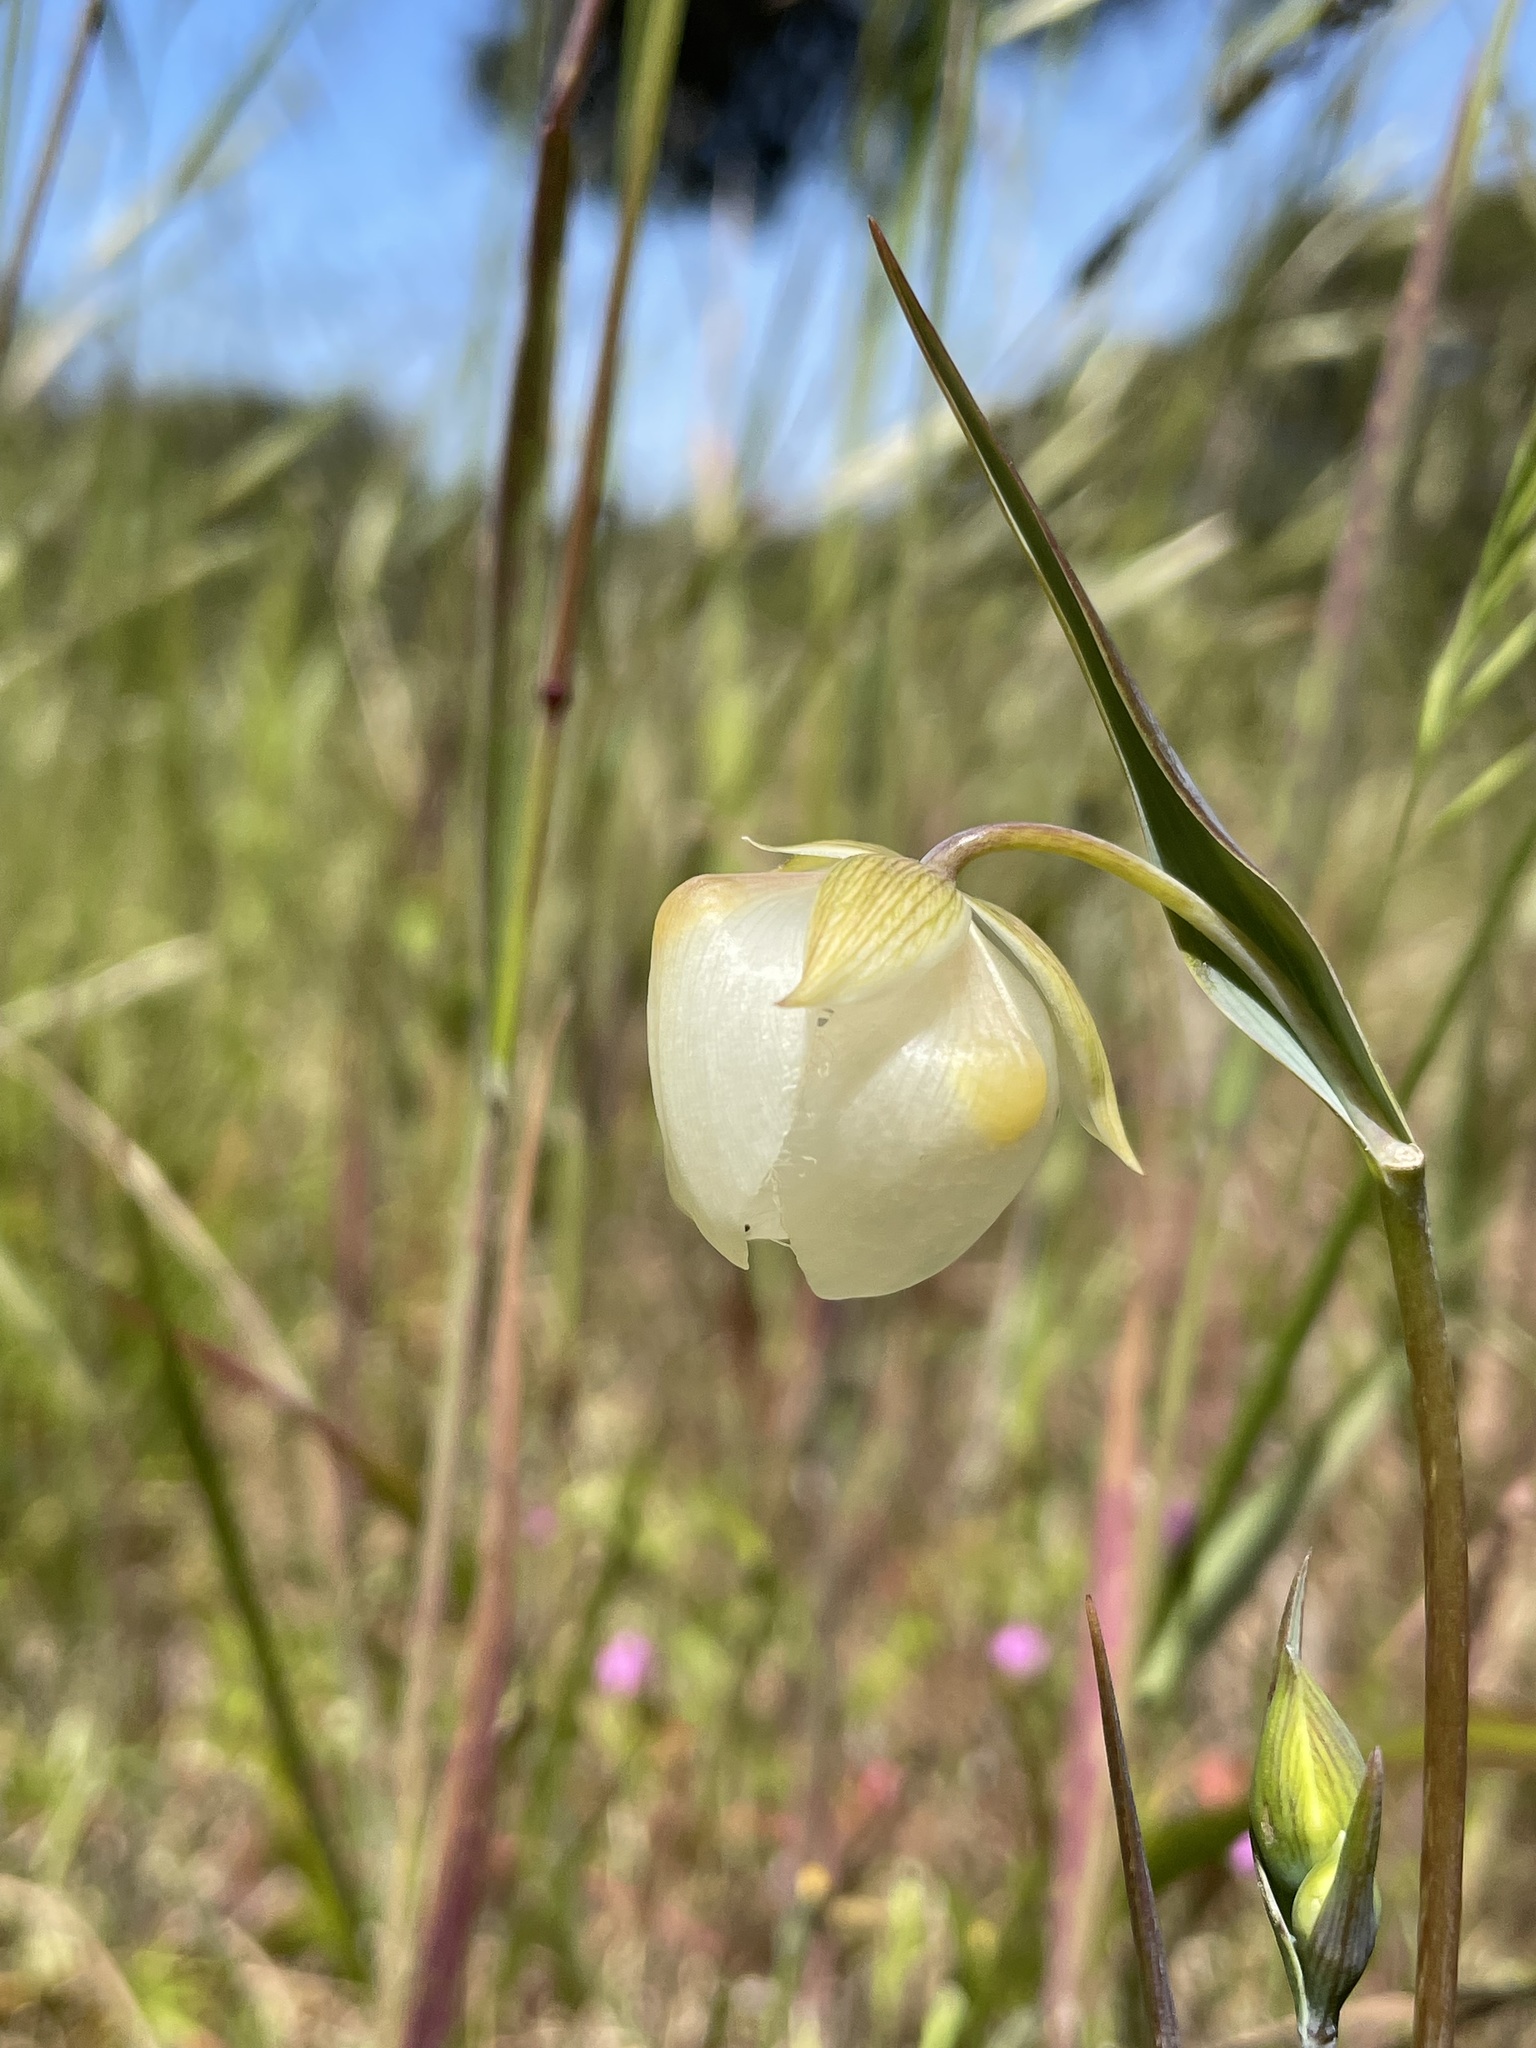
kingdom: Plantae
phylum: Tracheophyta
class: Liliopsida
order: Liliales
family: Liliaceae
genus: Calochortus
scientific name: Calochortus albus
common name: Fairy-lantern
